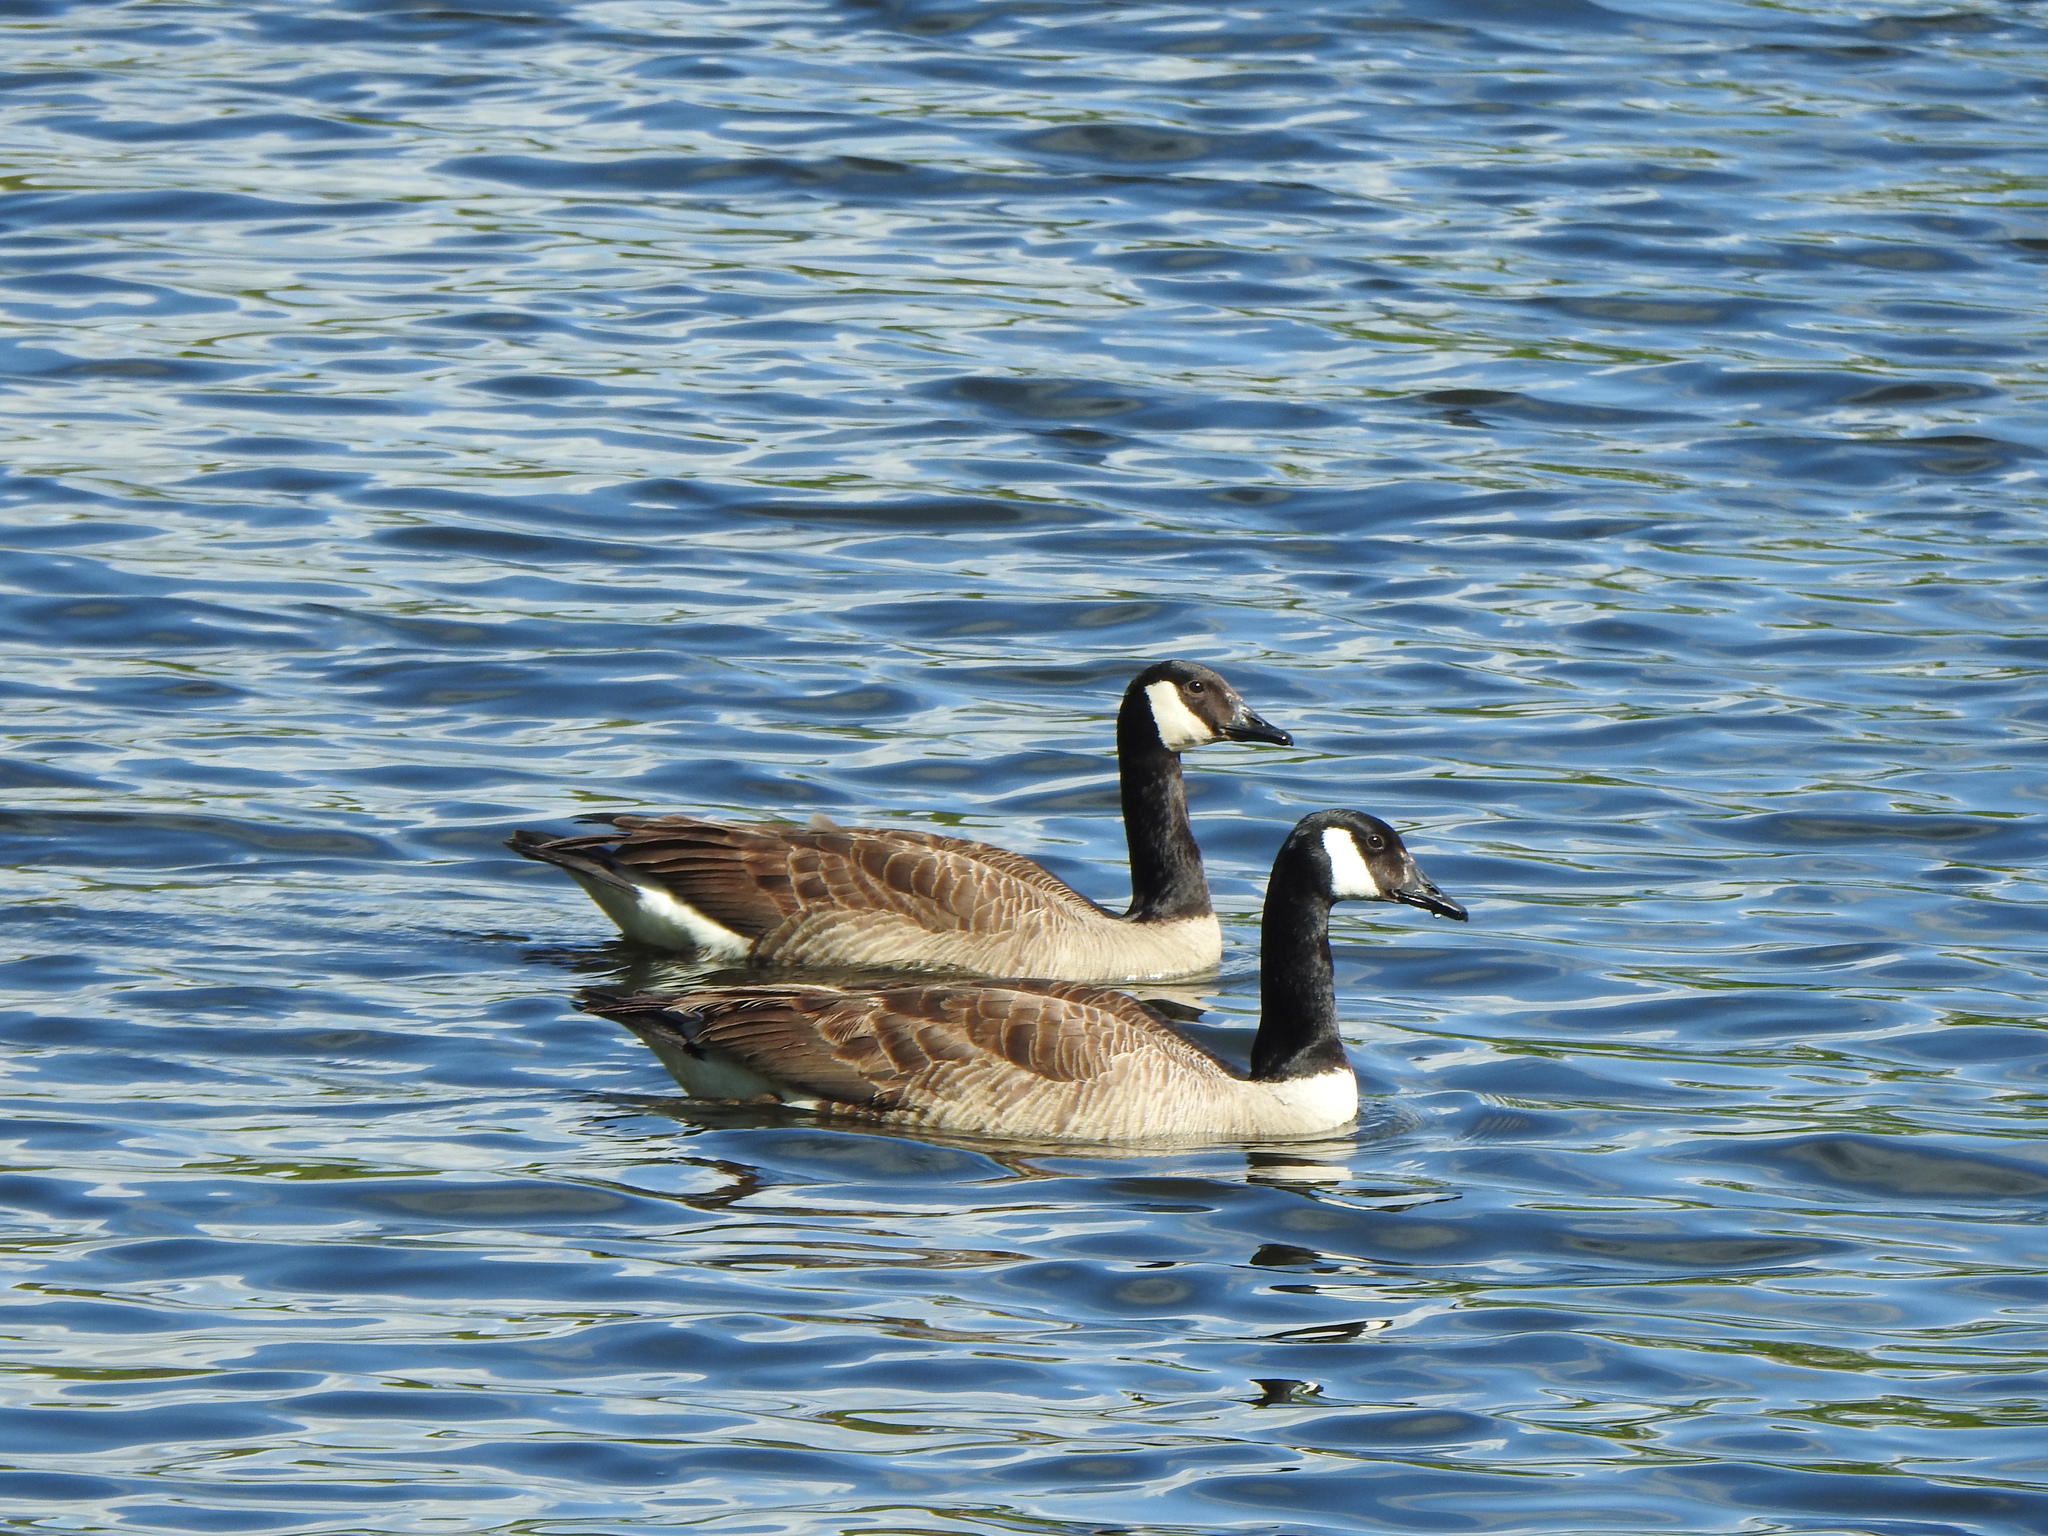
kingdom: Animalia
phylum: Chordata
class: Aves
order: Anseriformes
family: Anatidae
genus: Branta
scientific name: Branta canadensis
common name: Canada goose
